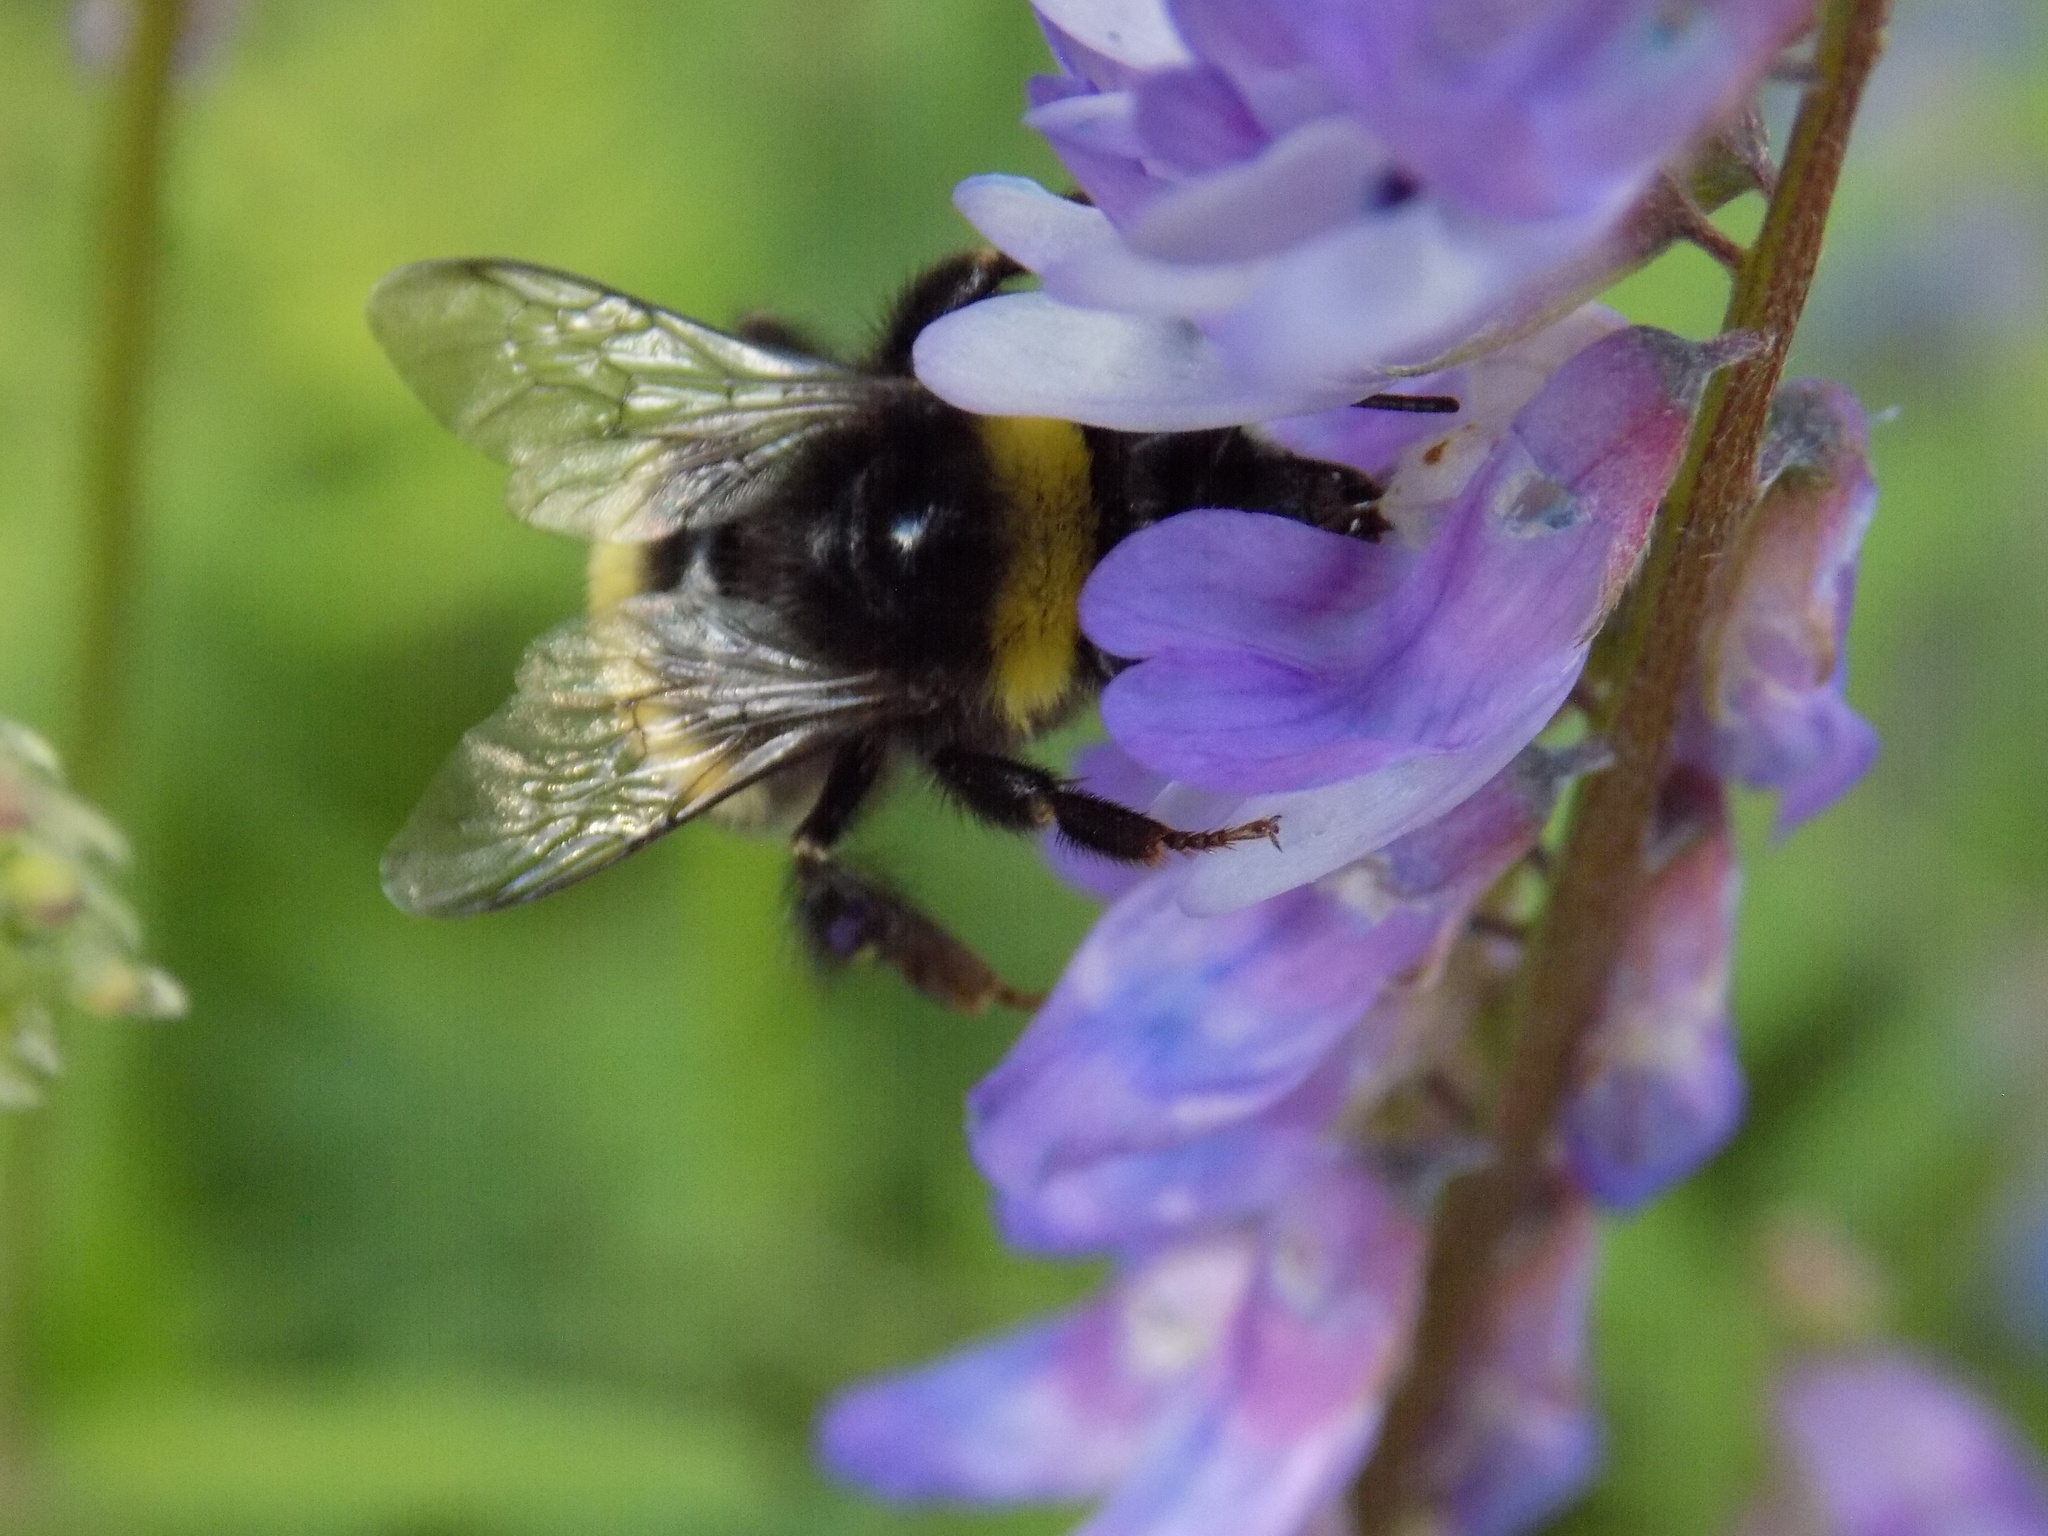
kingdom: Animalia
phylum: Arthropoda
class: Insecta
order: Hymenoptera
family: Apidae
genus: Bombus
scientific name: Bombus
